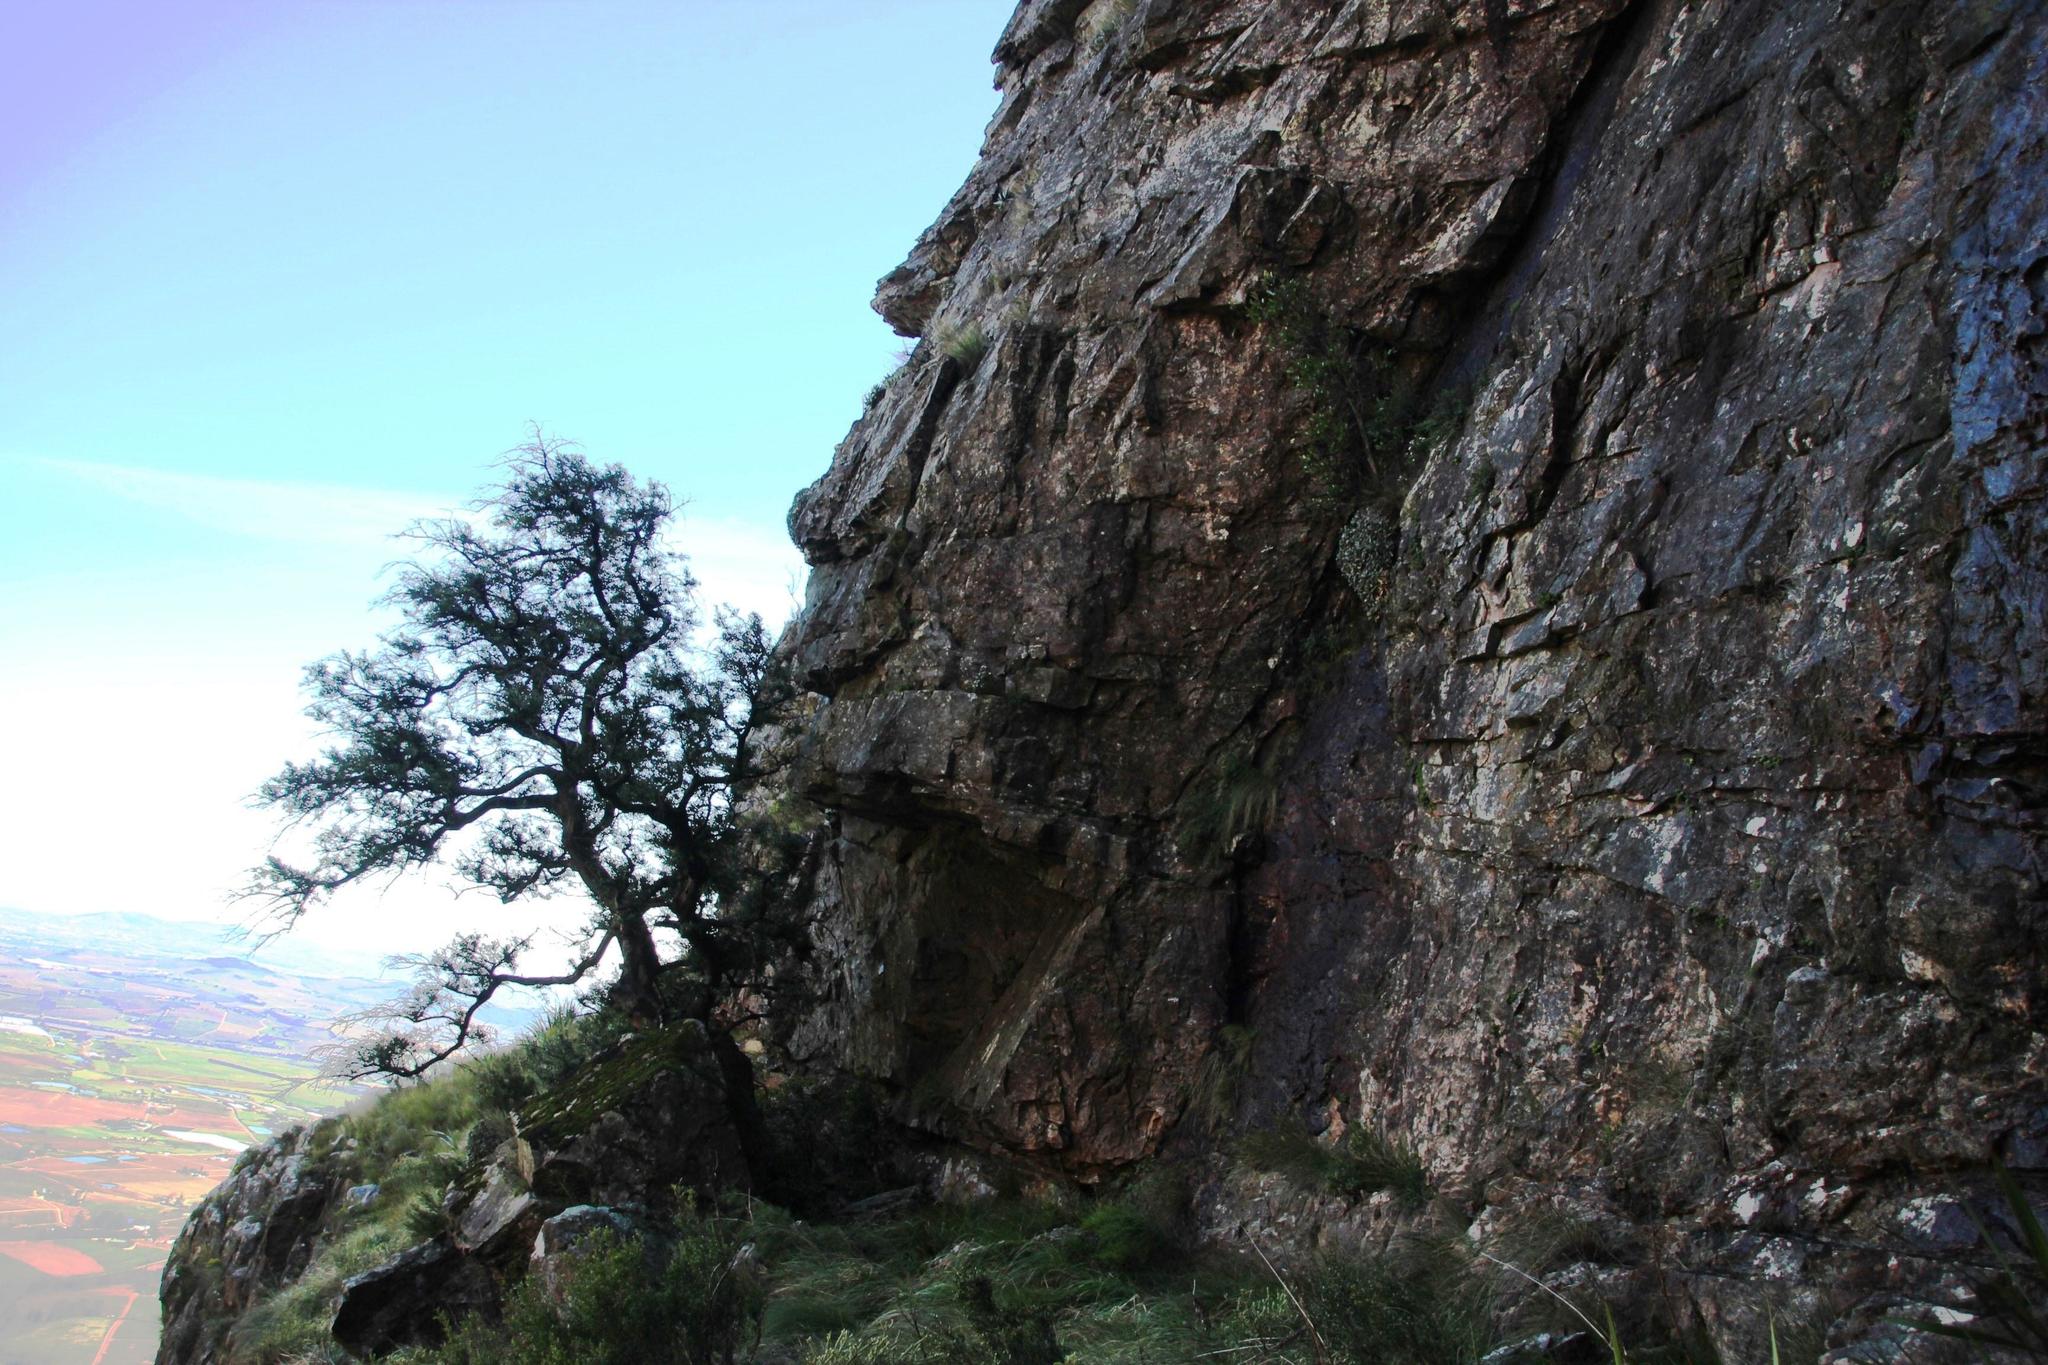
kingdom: Plantae
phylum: Tracheophyta
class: Magnoliopsida
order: Celastrales
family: Celastraceae
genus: Gymnosporia
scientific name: Gymnosporia laurina
